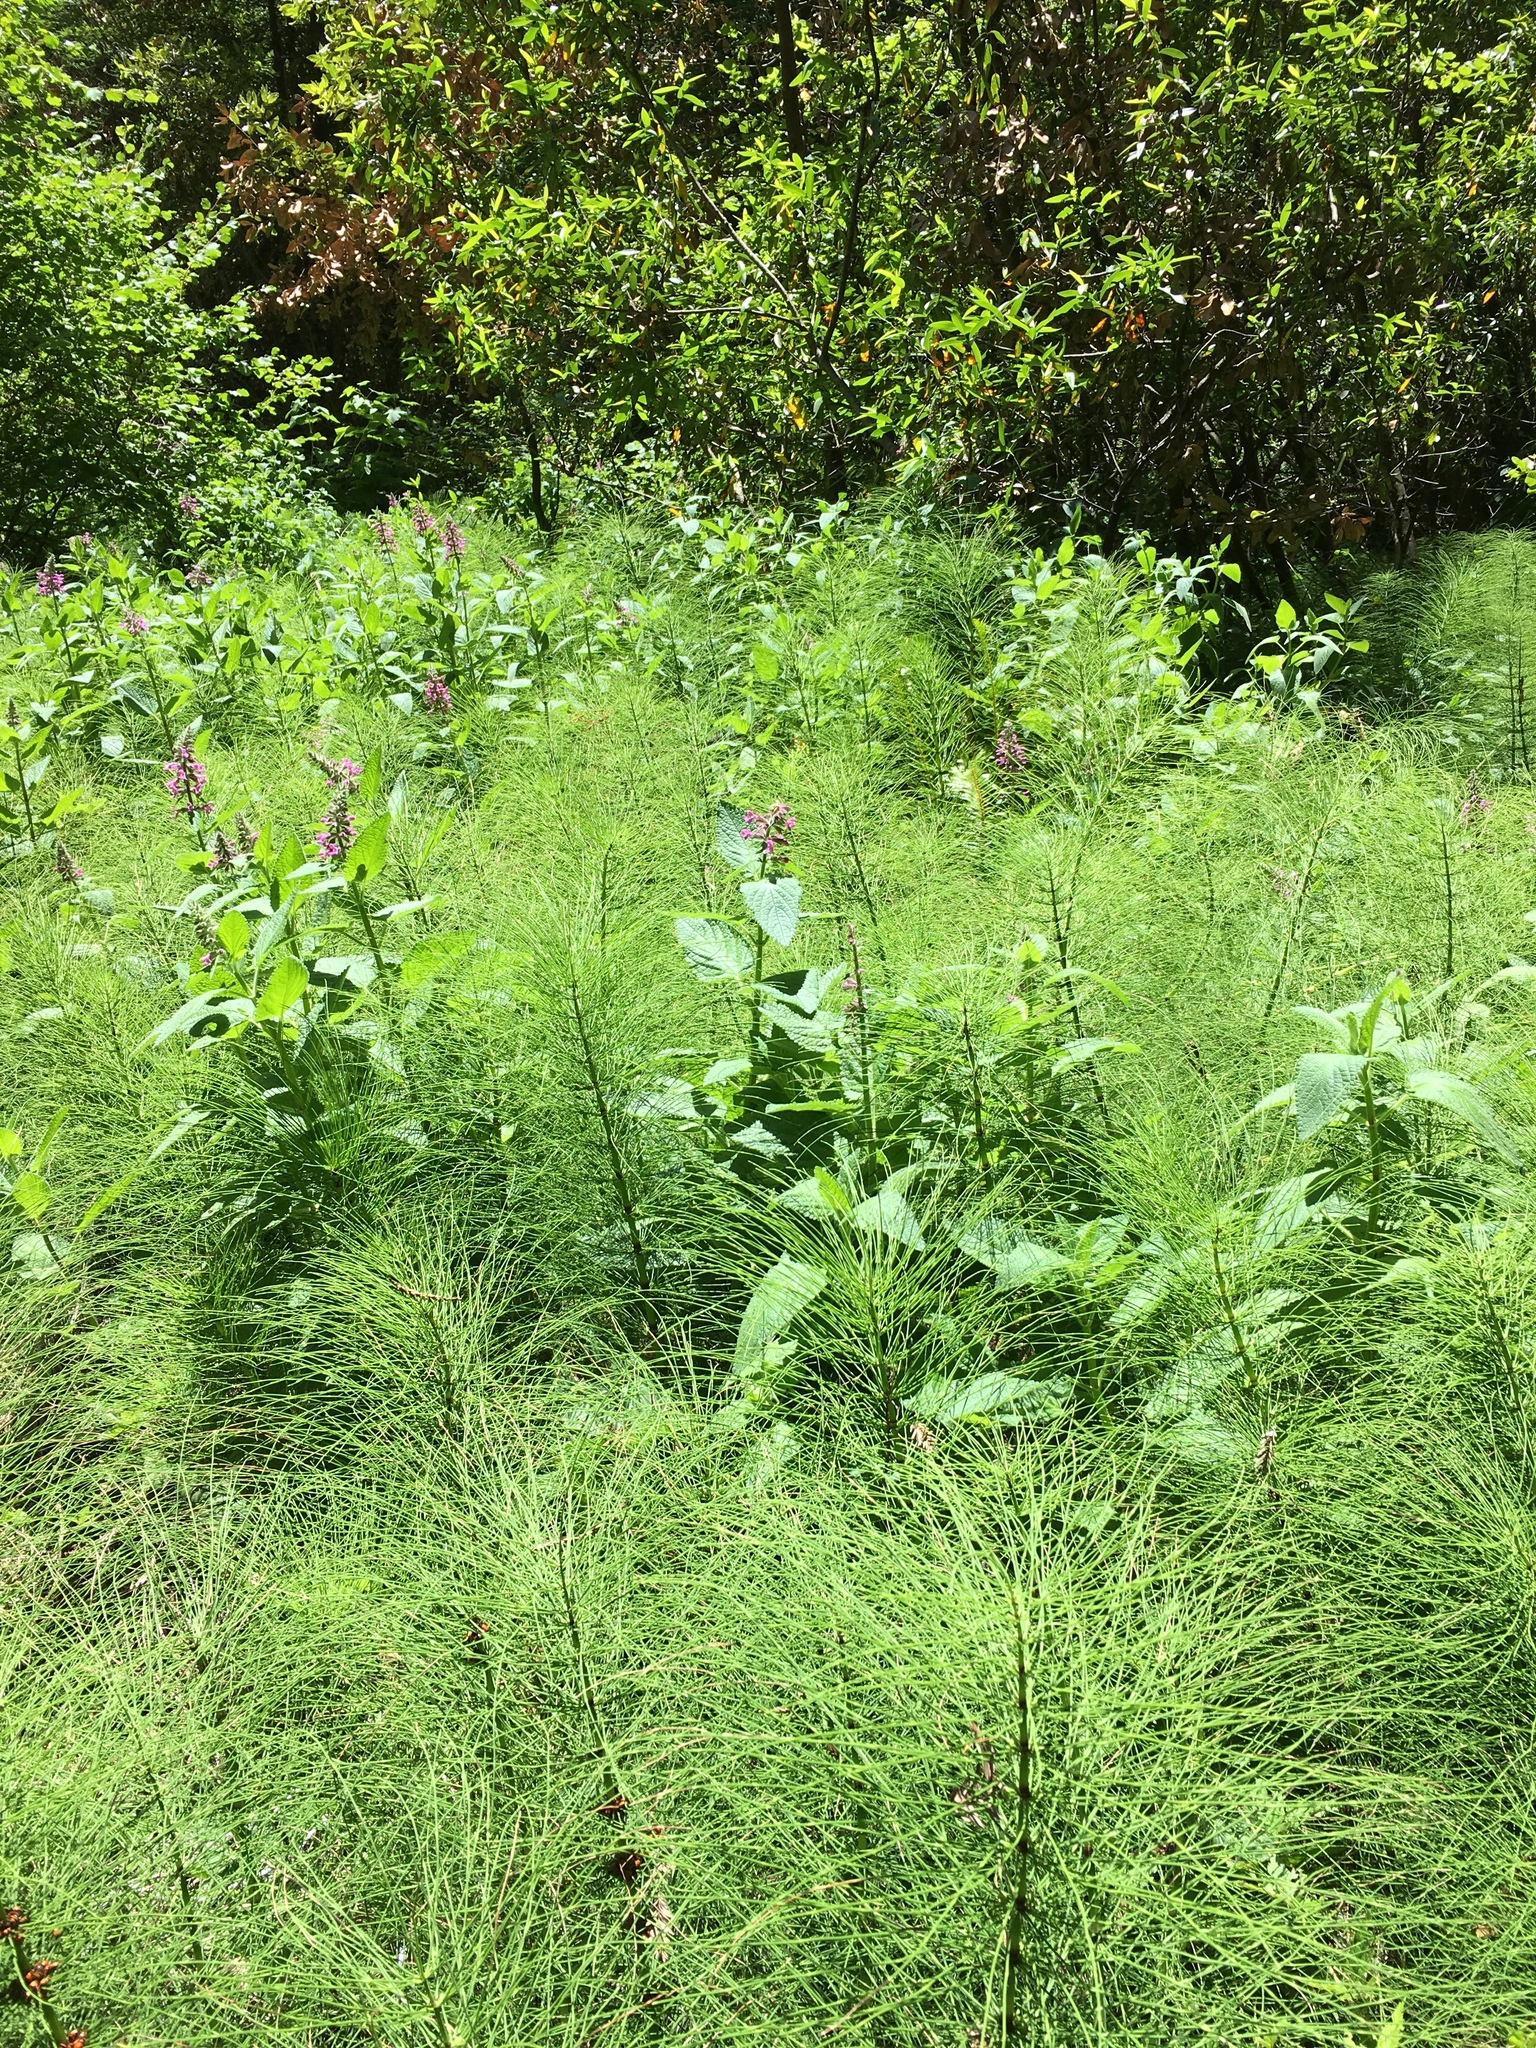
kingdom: Plantae
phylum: Tracheophyta
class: Magnoliopsida
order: Lamiales
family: Lamiaceae
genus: Stachys
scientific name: Stachys chamissonis
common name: Coastal hedge-nettle
